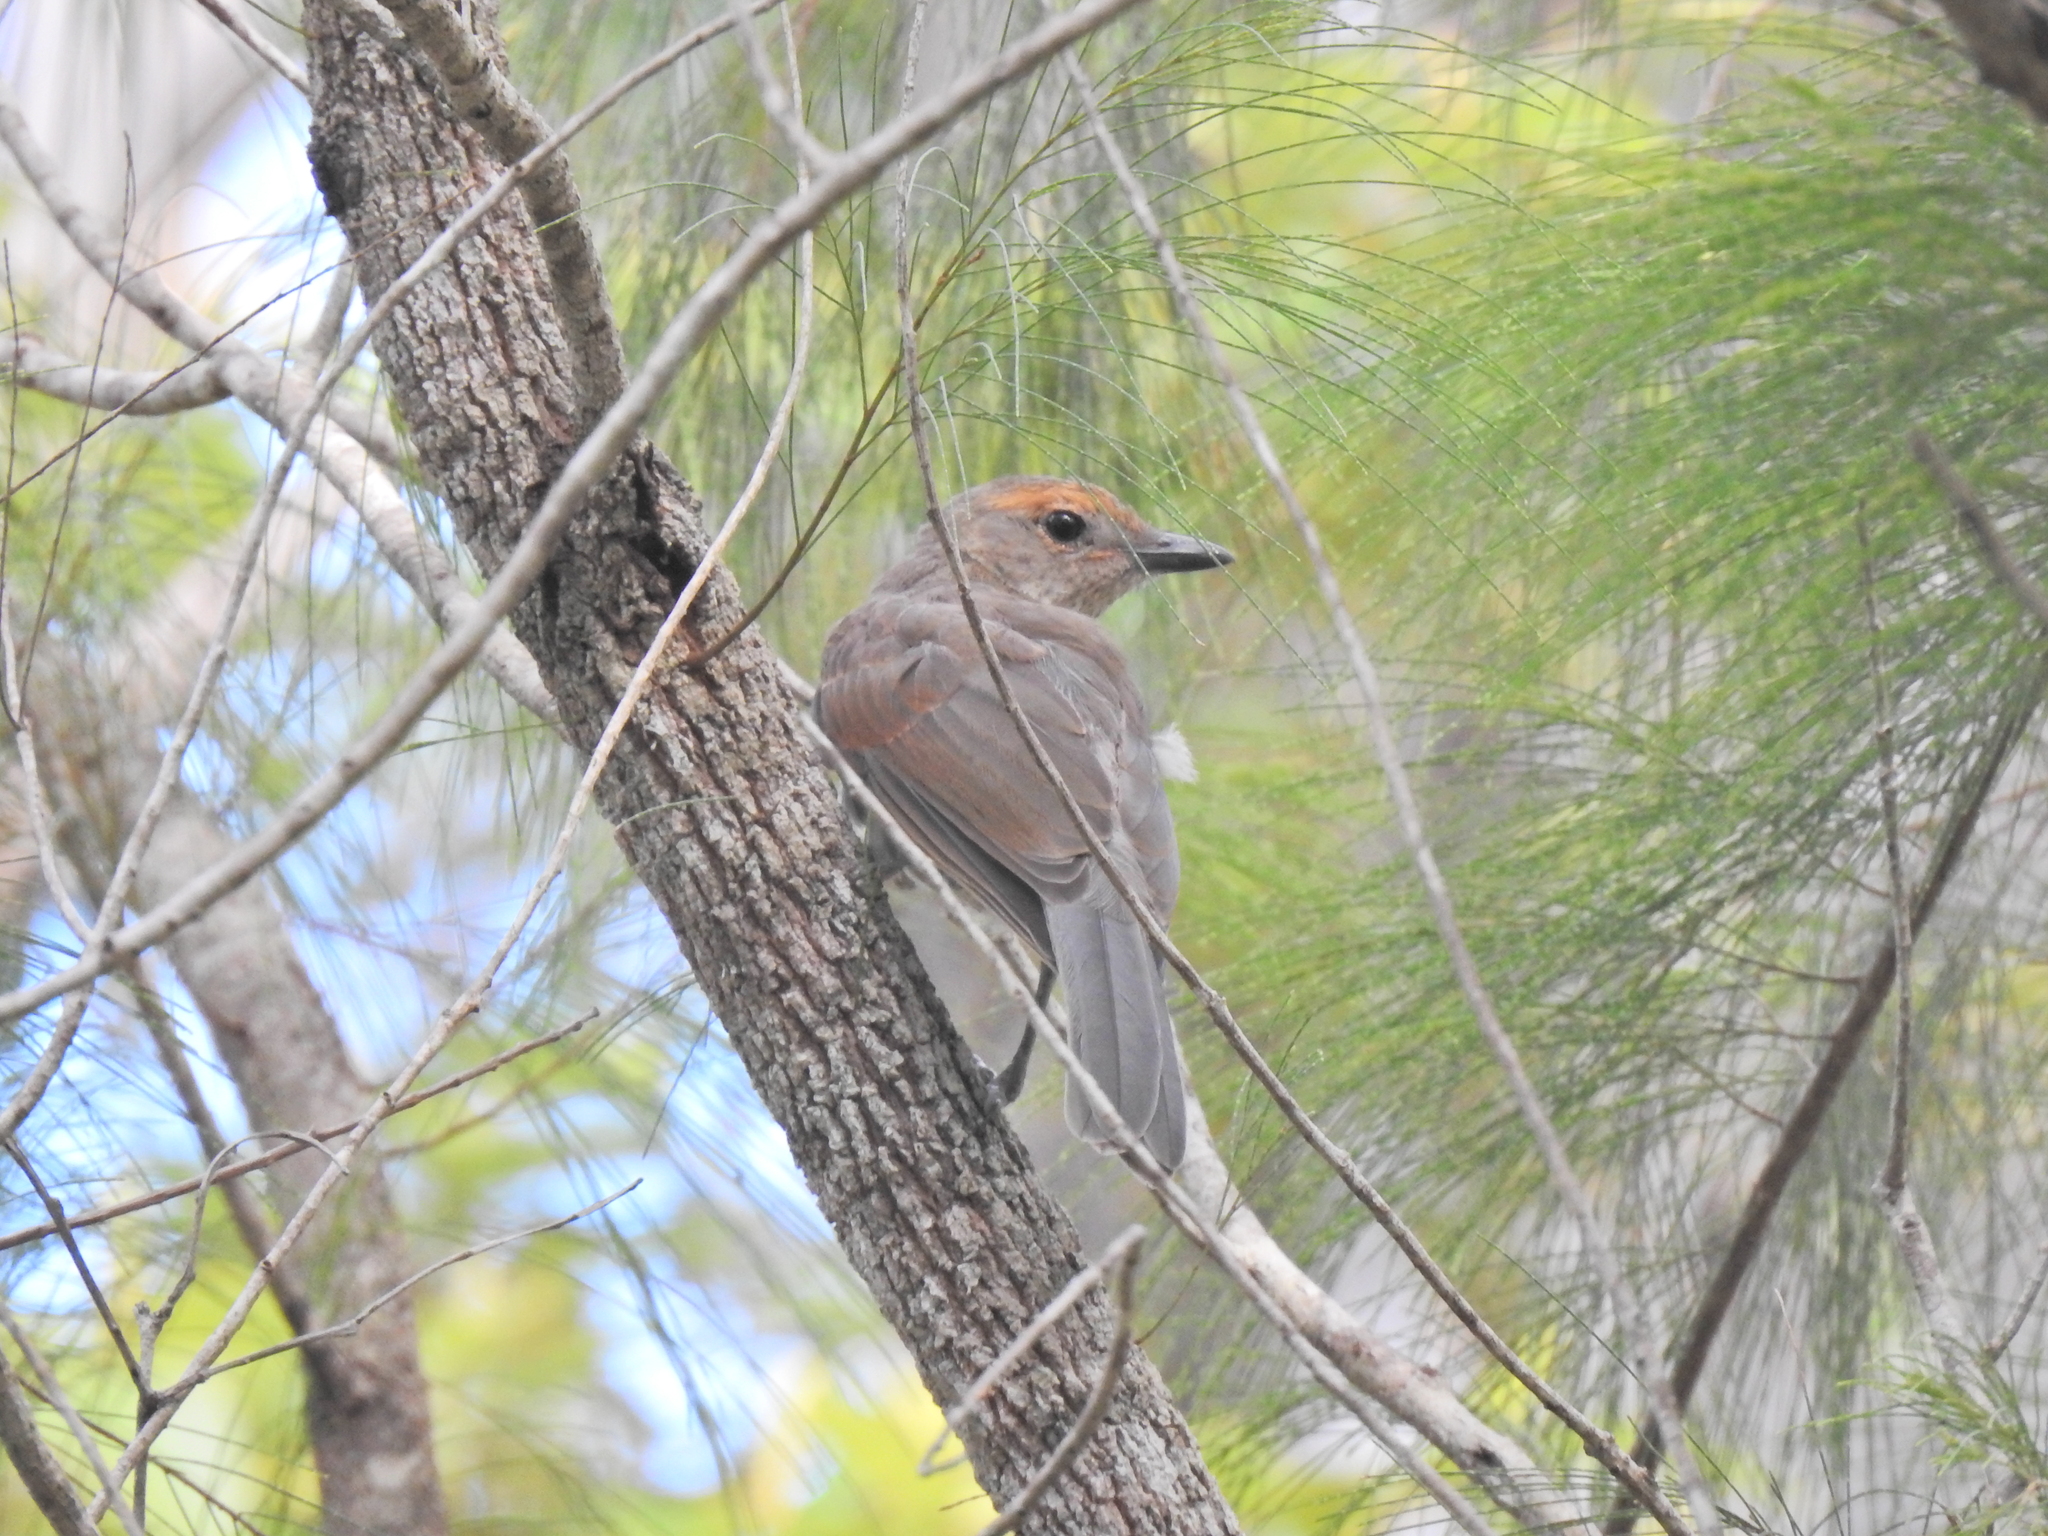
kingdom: Animalia
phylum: Chordata
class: Aves
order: Passeriformes
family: Pachycephalidae
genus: Colluricincla
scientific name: Colluricincla harmonica
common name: Grey shrikethrush
